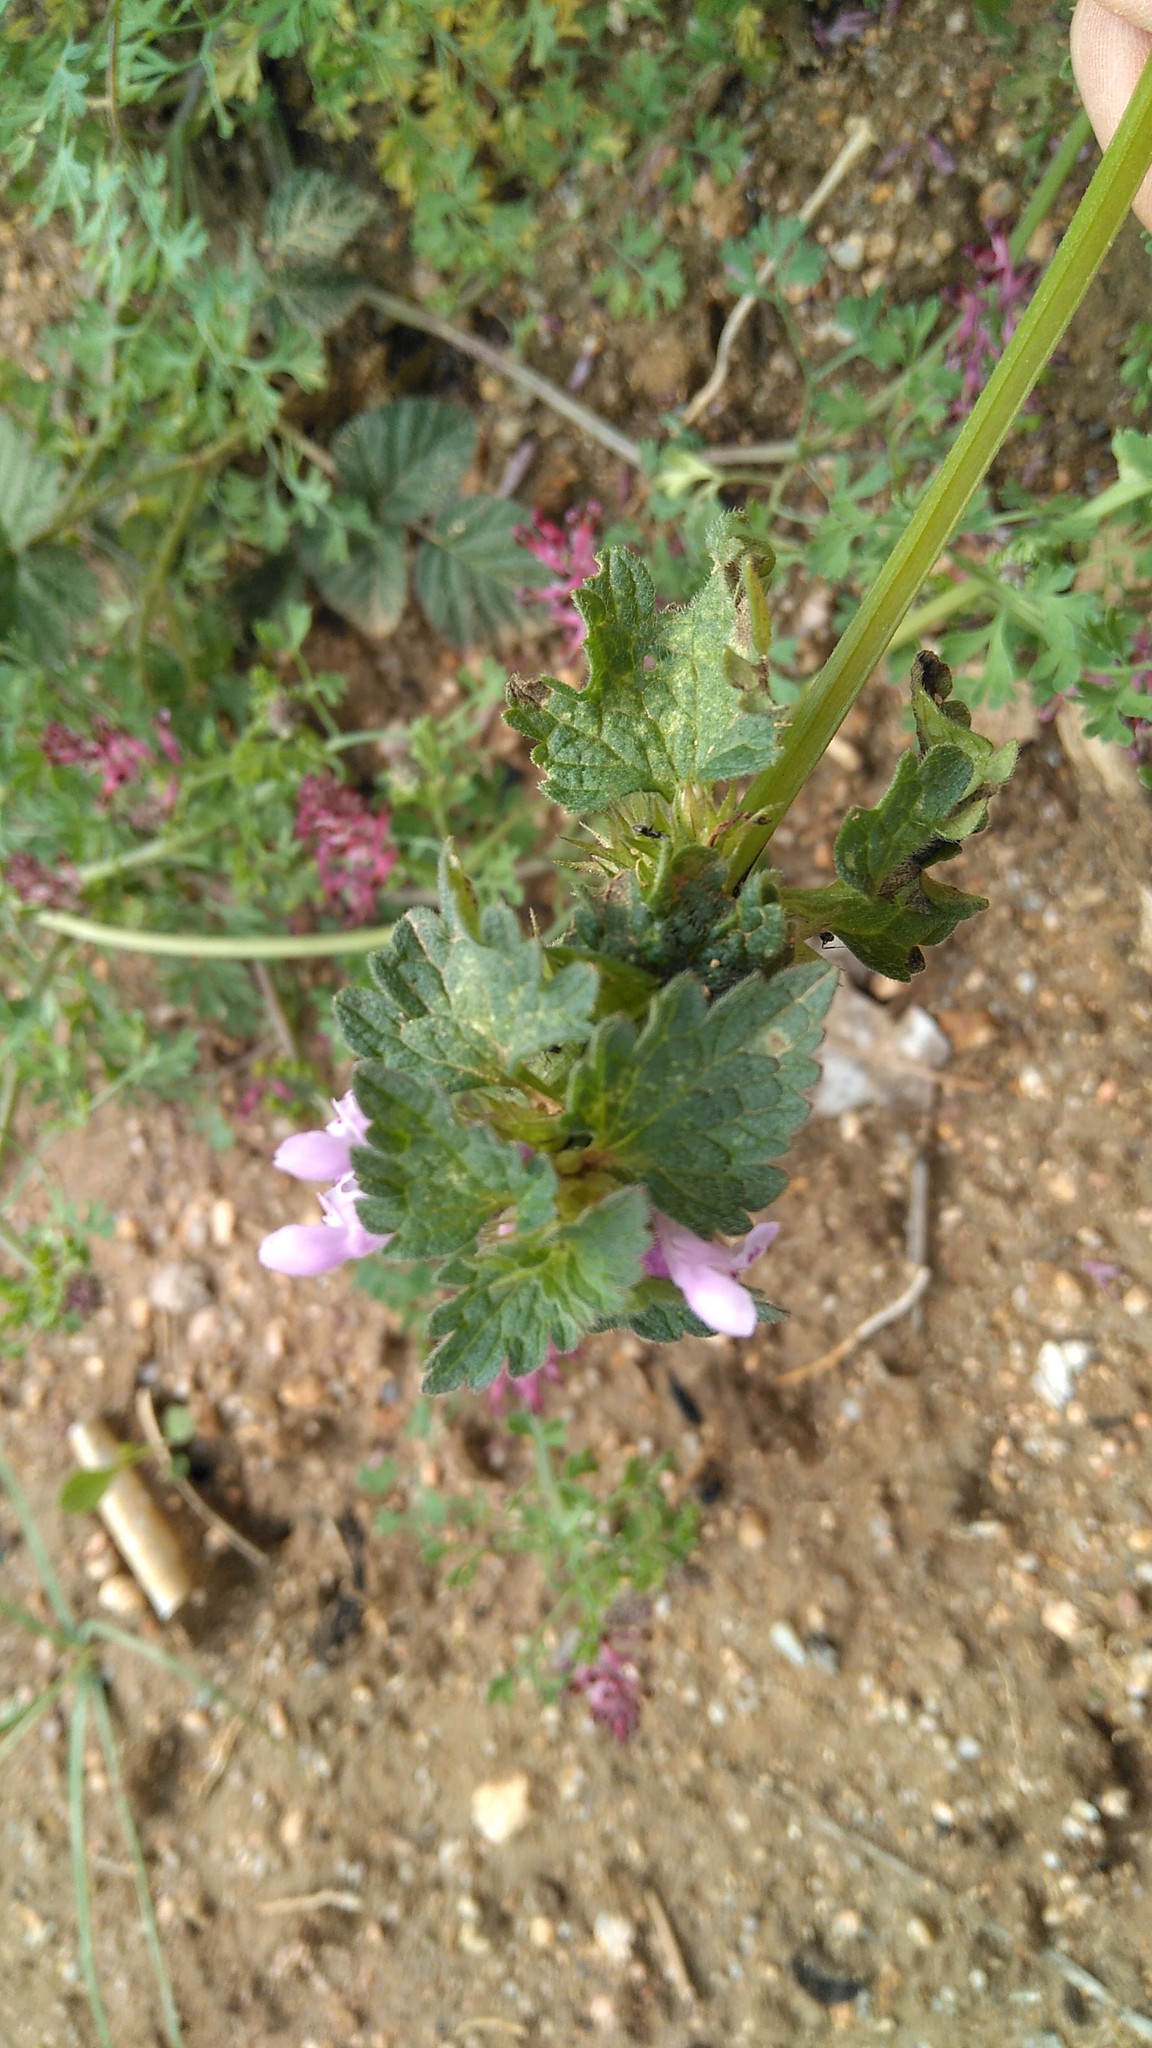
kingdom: Plantae
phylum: Tracheophyta
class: Magnoliopsida
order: Lamiales
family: Lamiaceae
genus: Lamium
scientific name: Lamium hybridum
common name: Cut-leaved dead-nettle
